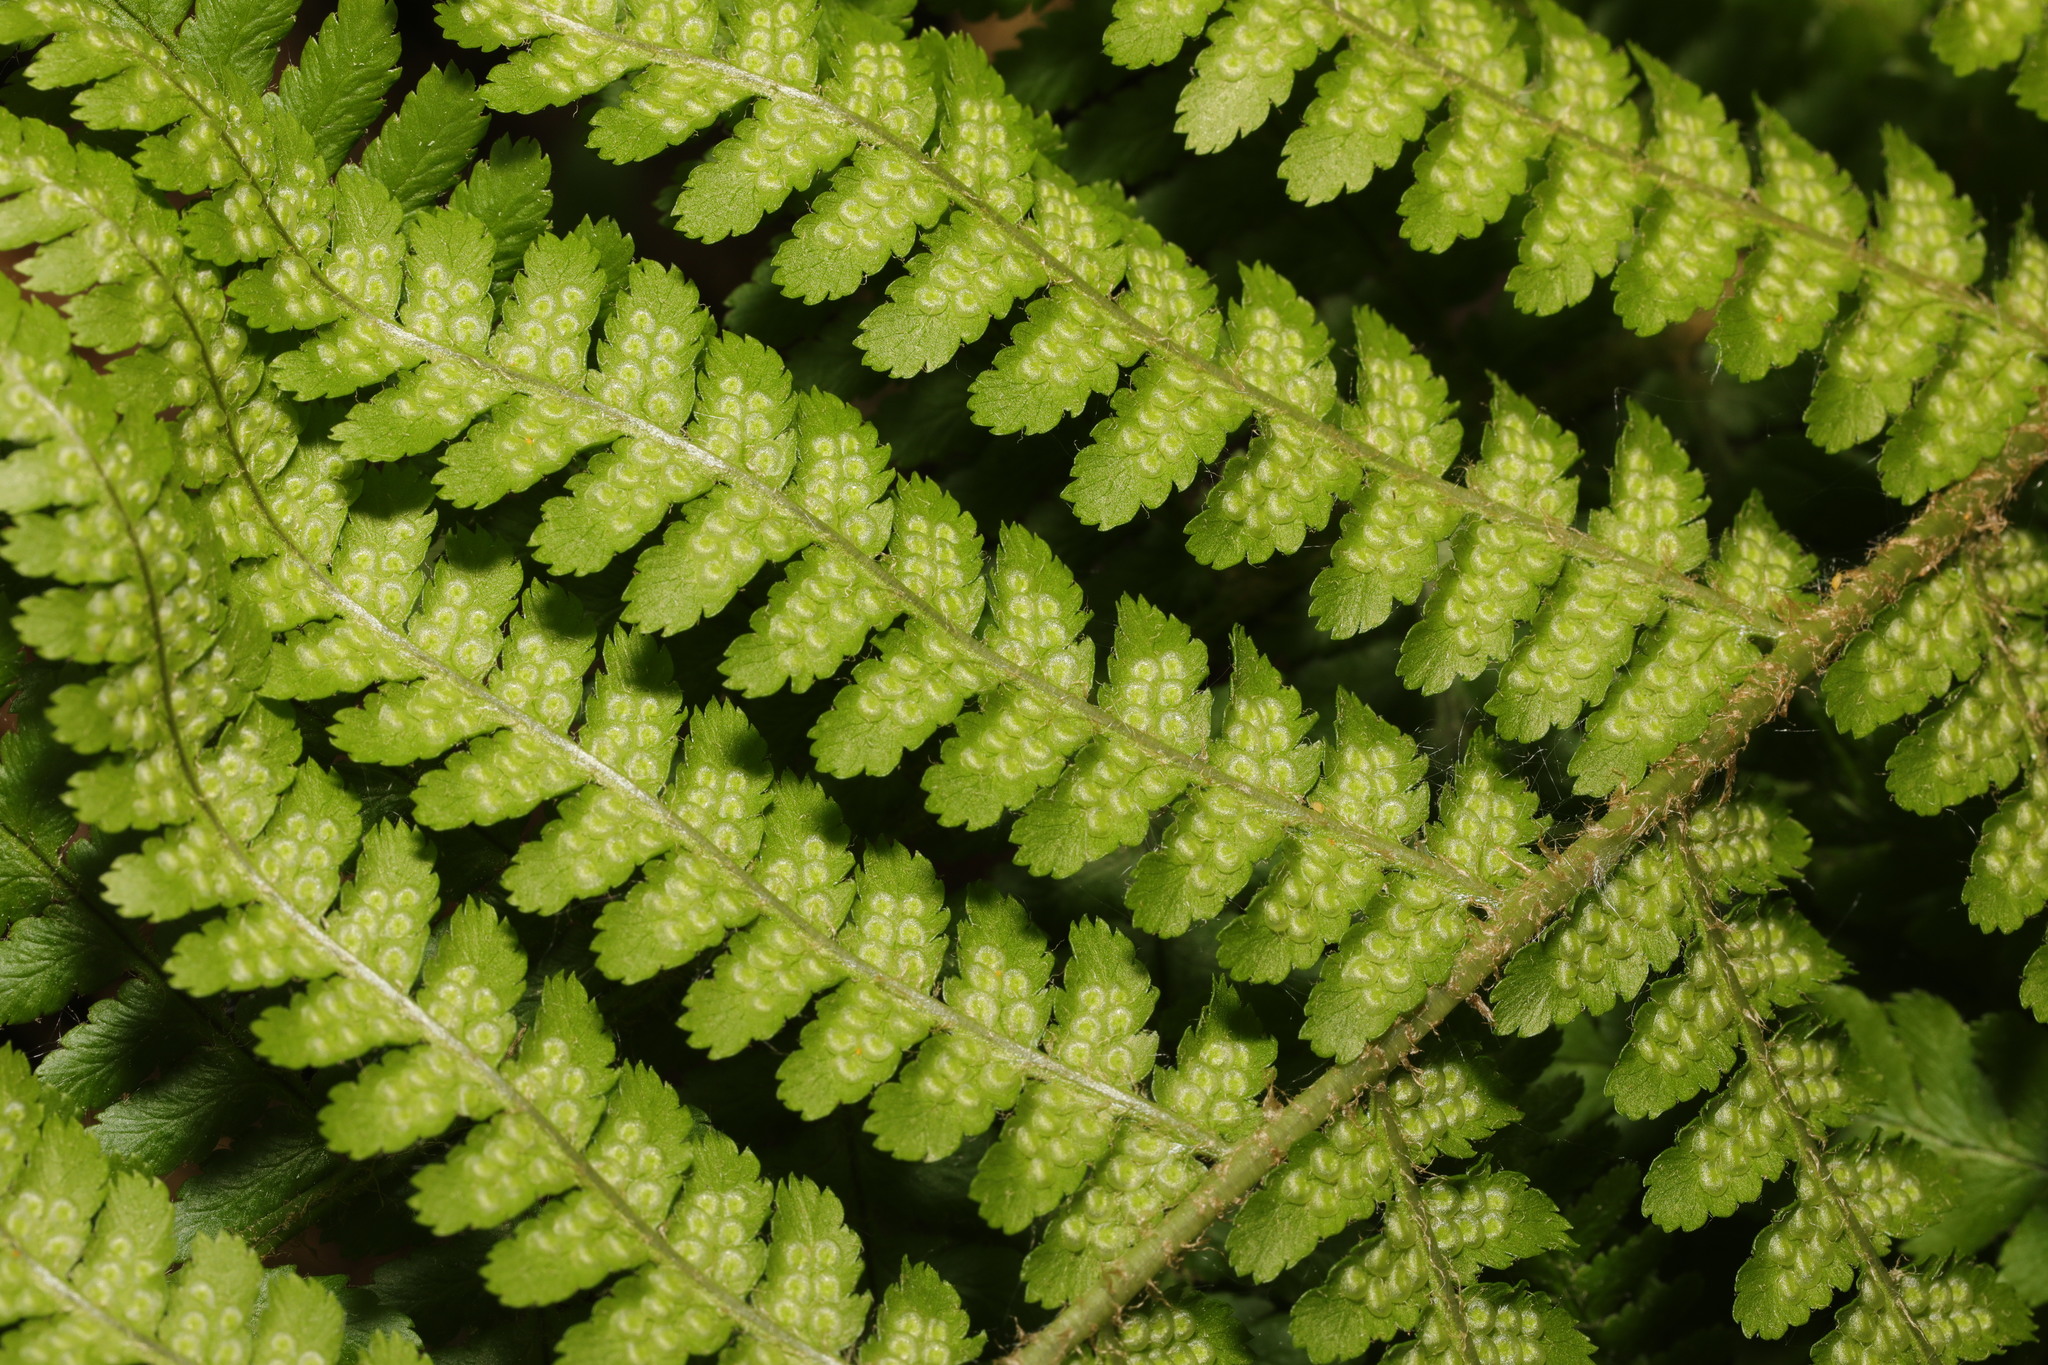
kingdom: Plantae
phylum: Tracheophyta
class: Polypodiopsida
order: Polypodiales
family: Dryopteridaceae
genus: Dryopteris
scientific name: Dryopteris filix-mas
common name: Male fern
